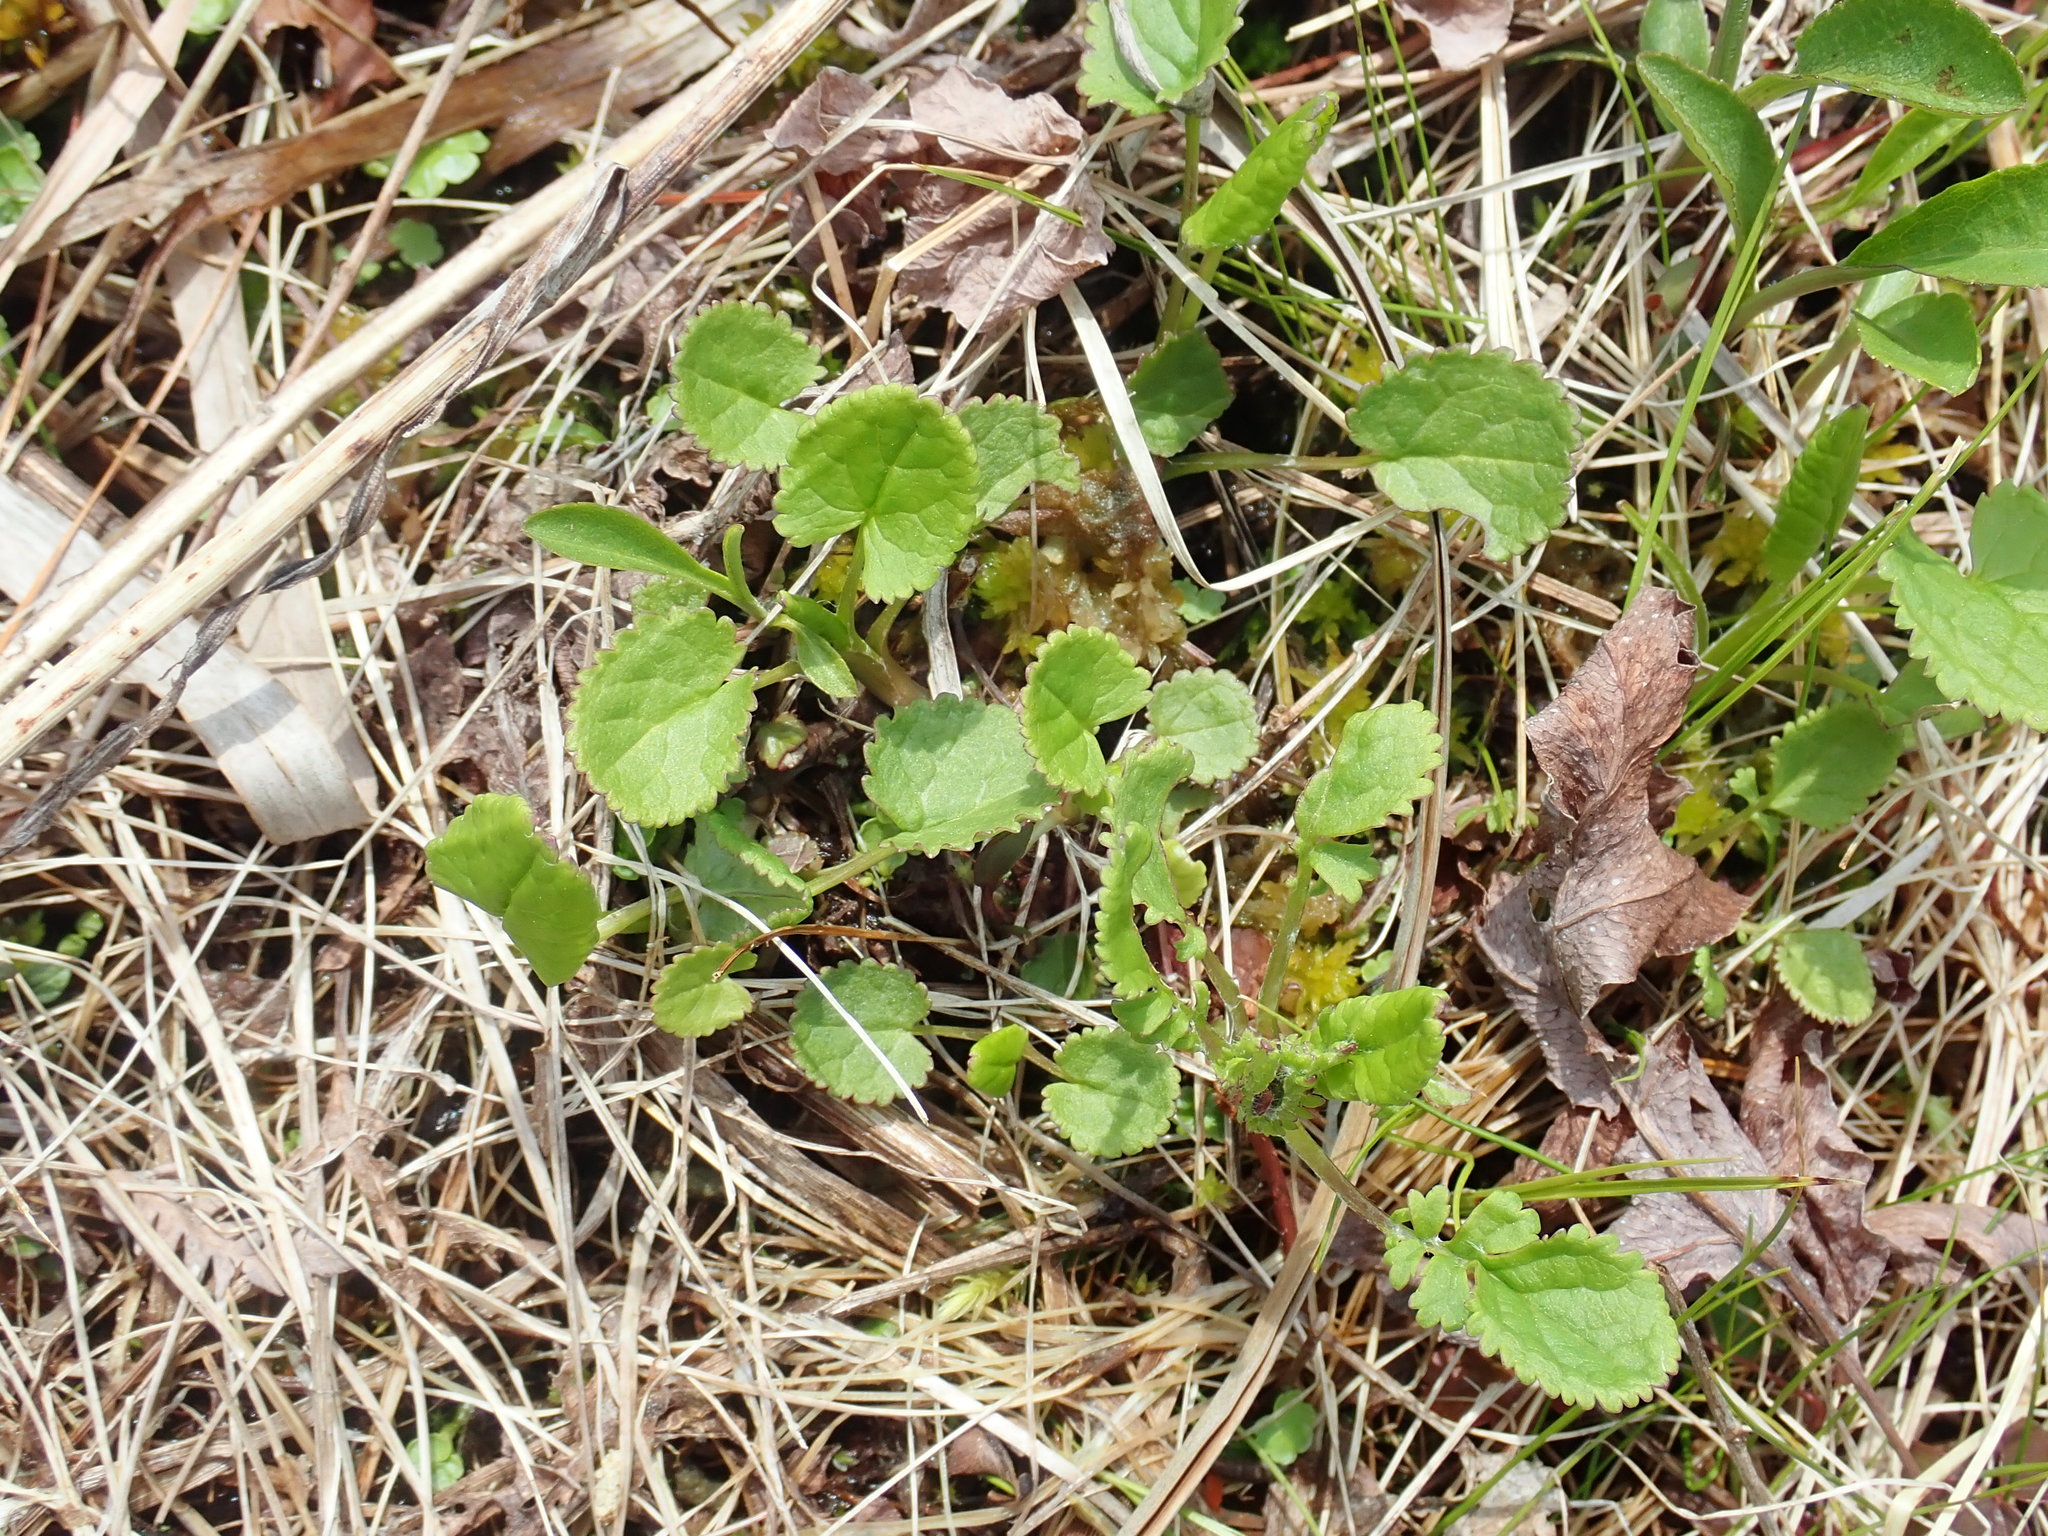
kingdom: Plantae
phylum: Tracheophyta
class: Magnoliopsida
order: Asterales
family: Asteraceae
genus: Packera
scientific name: Packera aurea
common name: Golden groundsel
